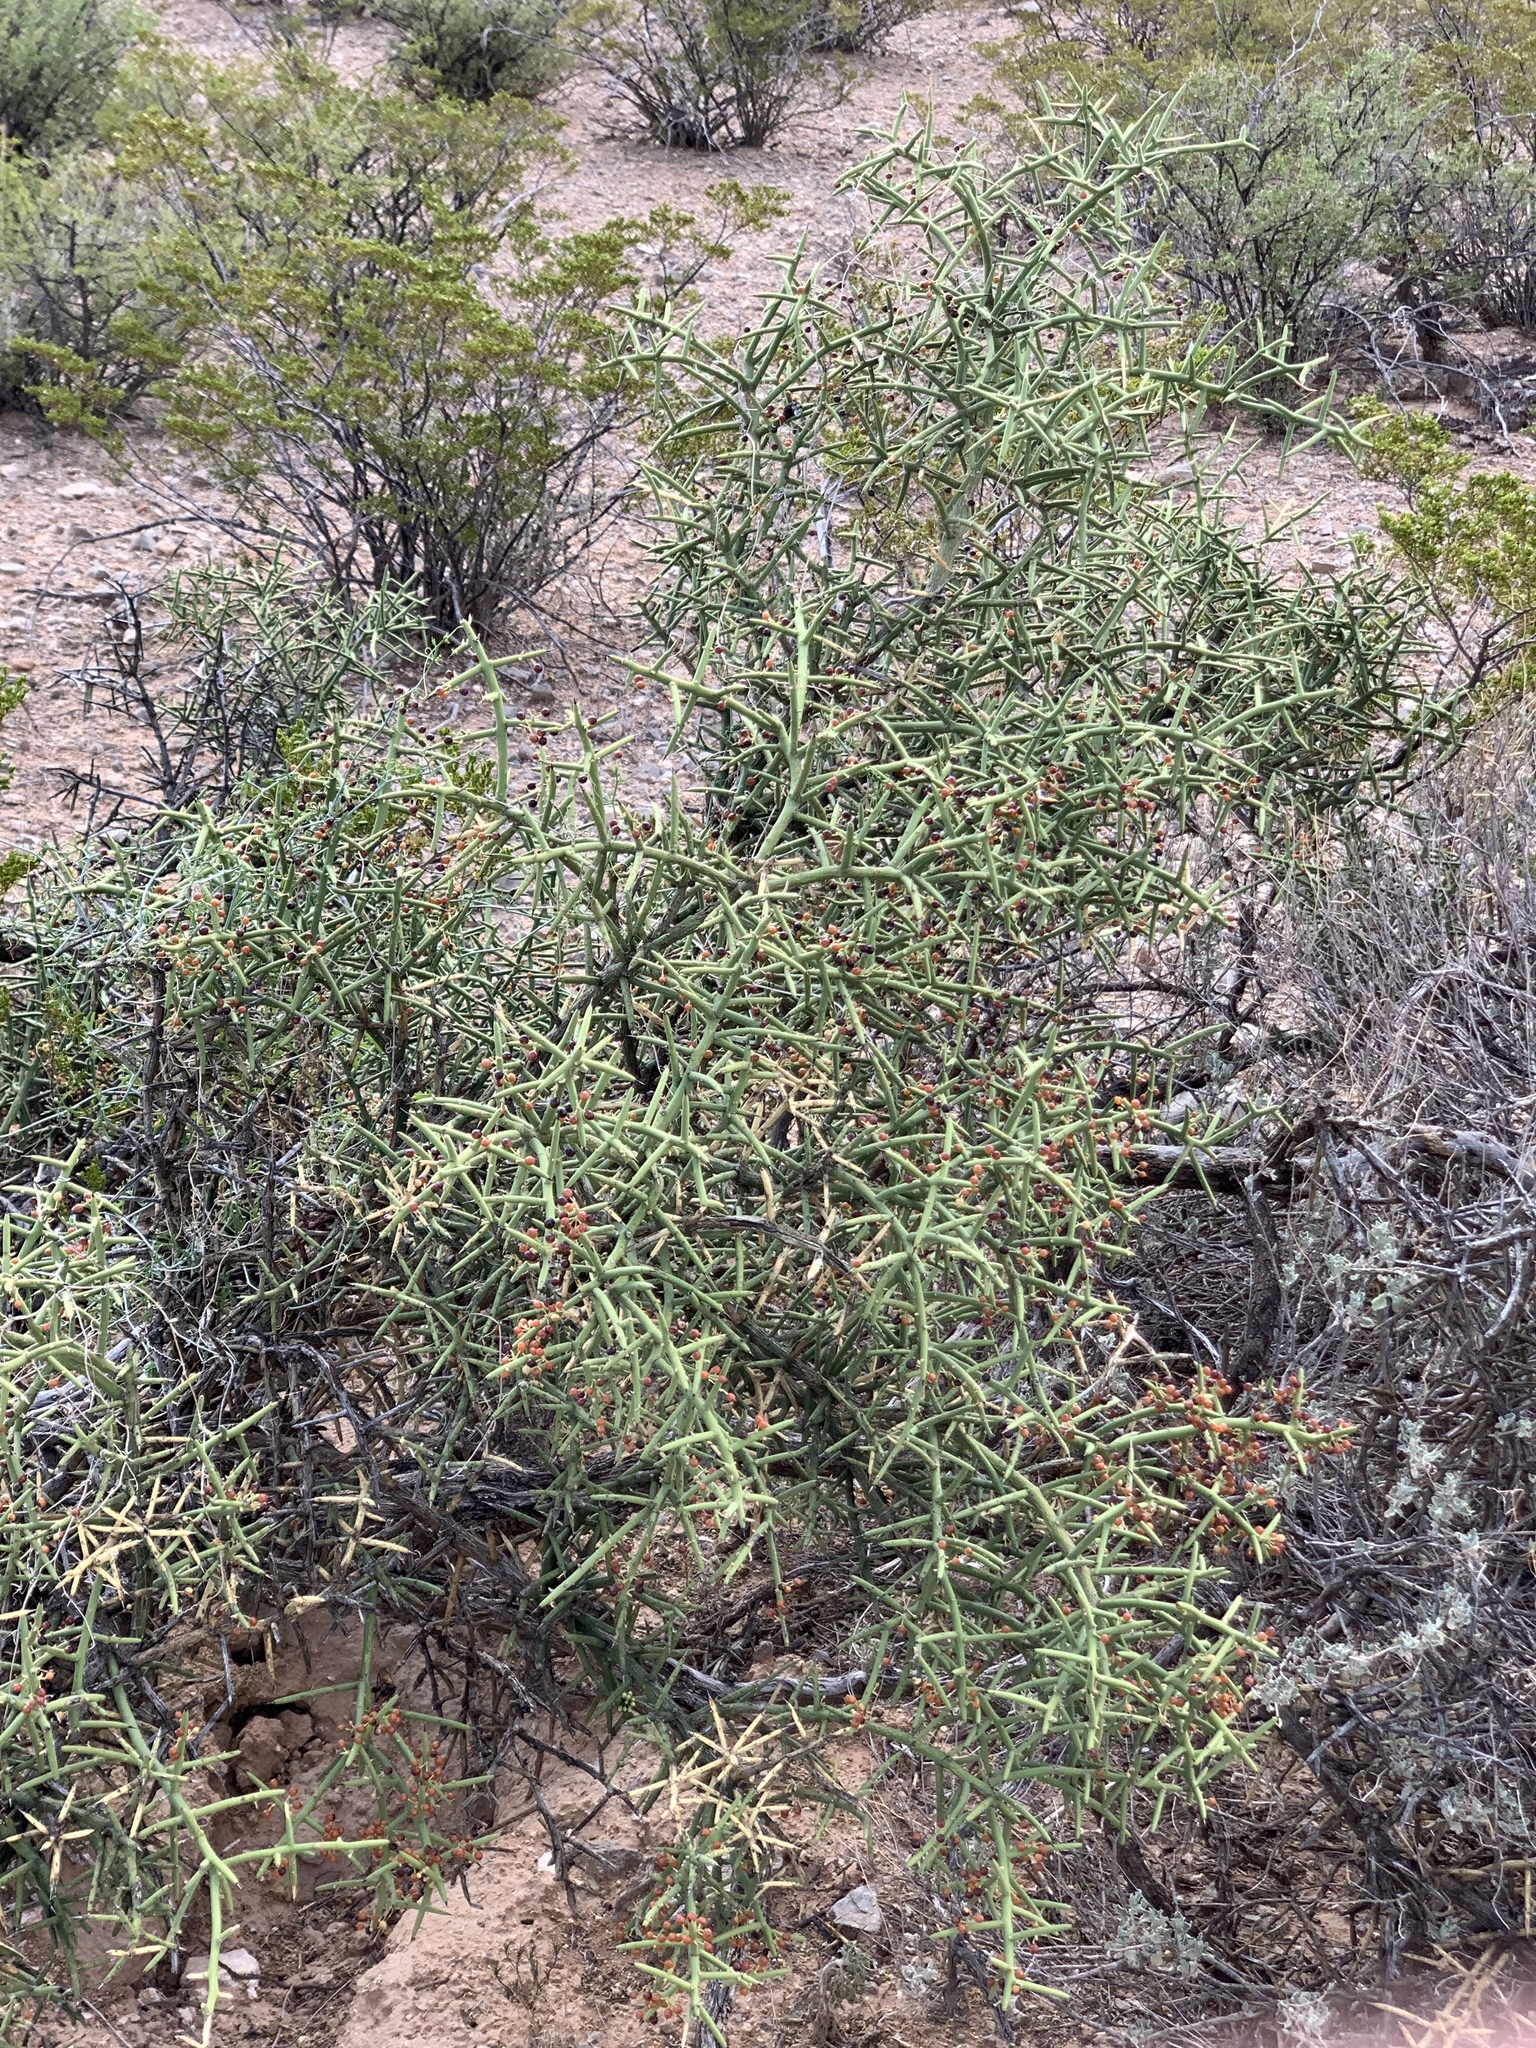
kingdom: Plantae
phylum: Tracheophyta
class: Magnoliopsida
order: Brassicales
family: Koeberliniaceae
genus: Koeberlinia
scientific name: Koeberlinia spinosa
